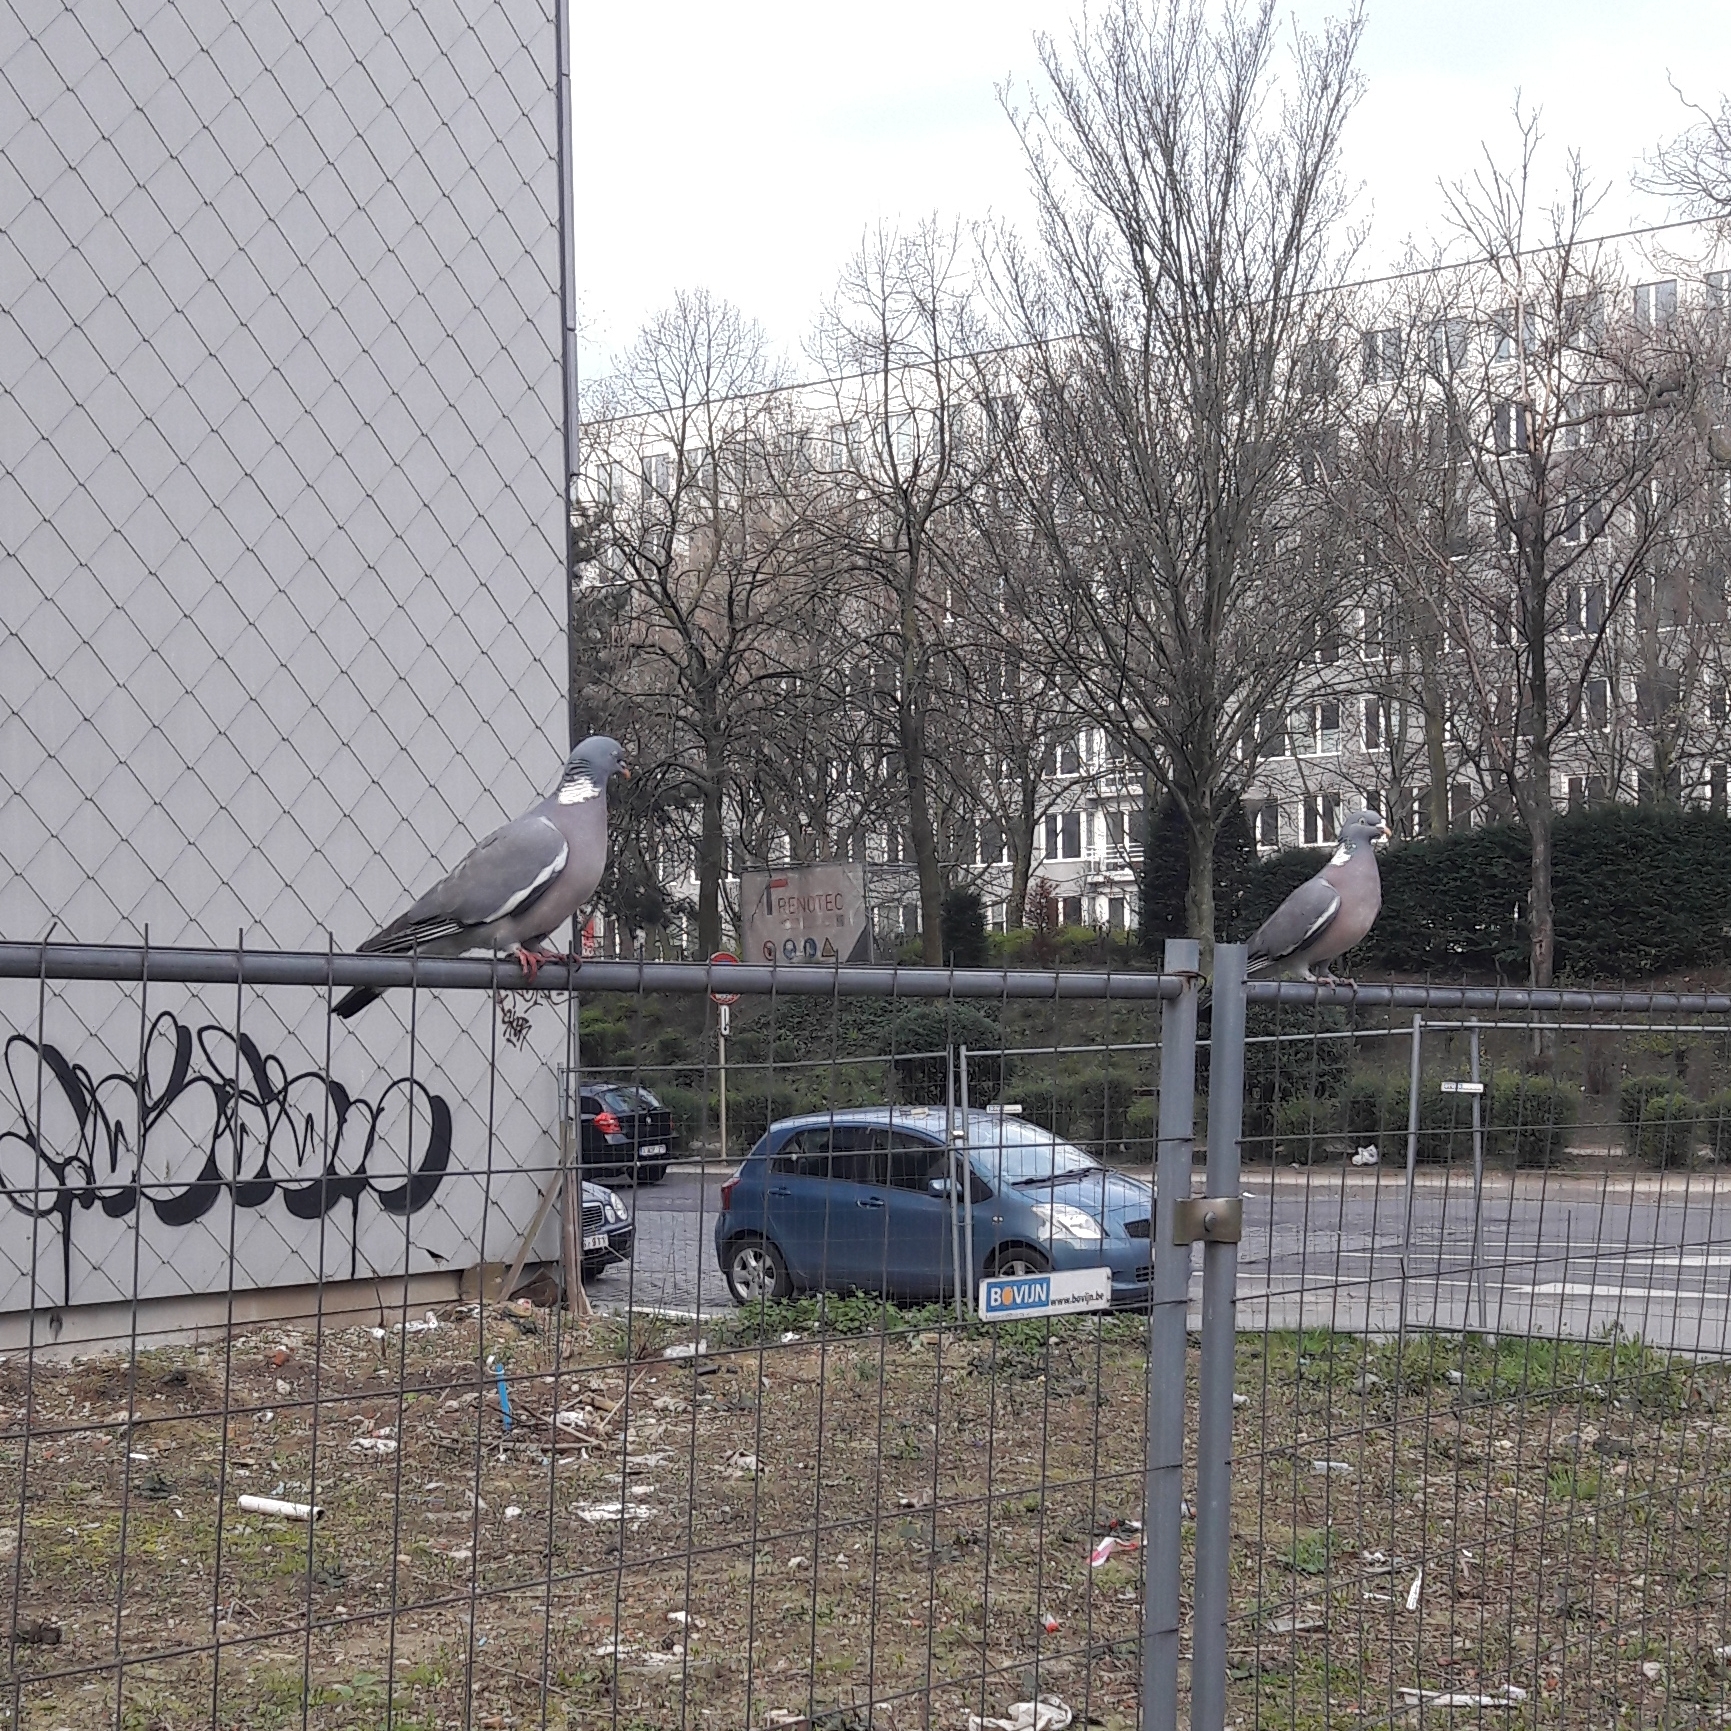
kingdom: Animalia
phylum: Chordata
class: Aves
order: Columbiformes
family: Columbidae
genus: Columba
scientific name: Columba palumbus
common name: Common wood pigeon
